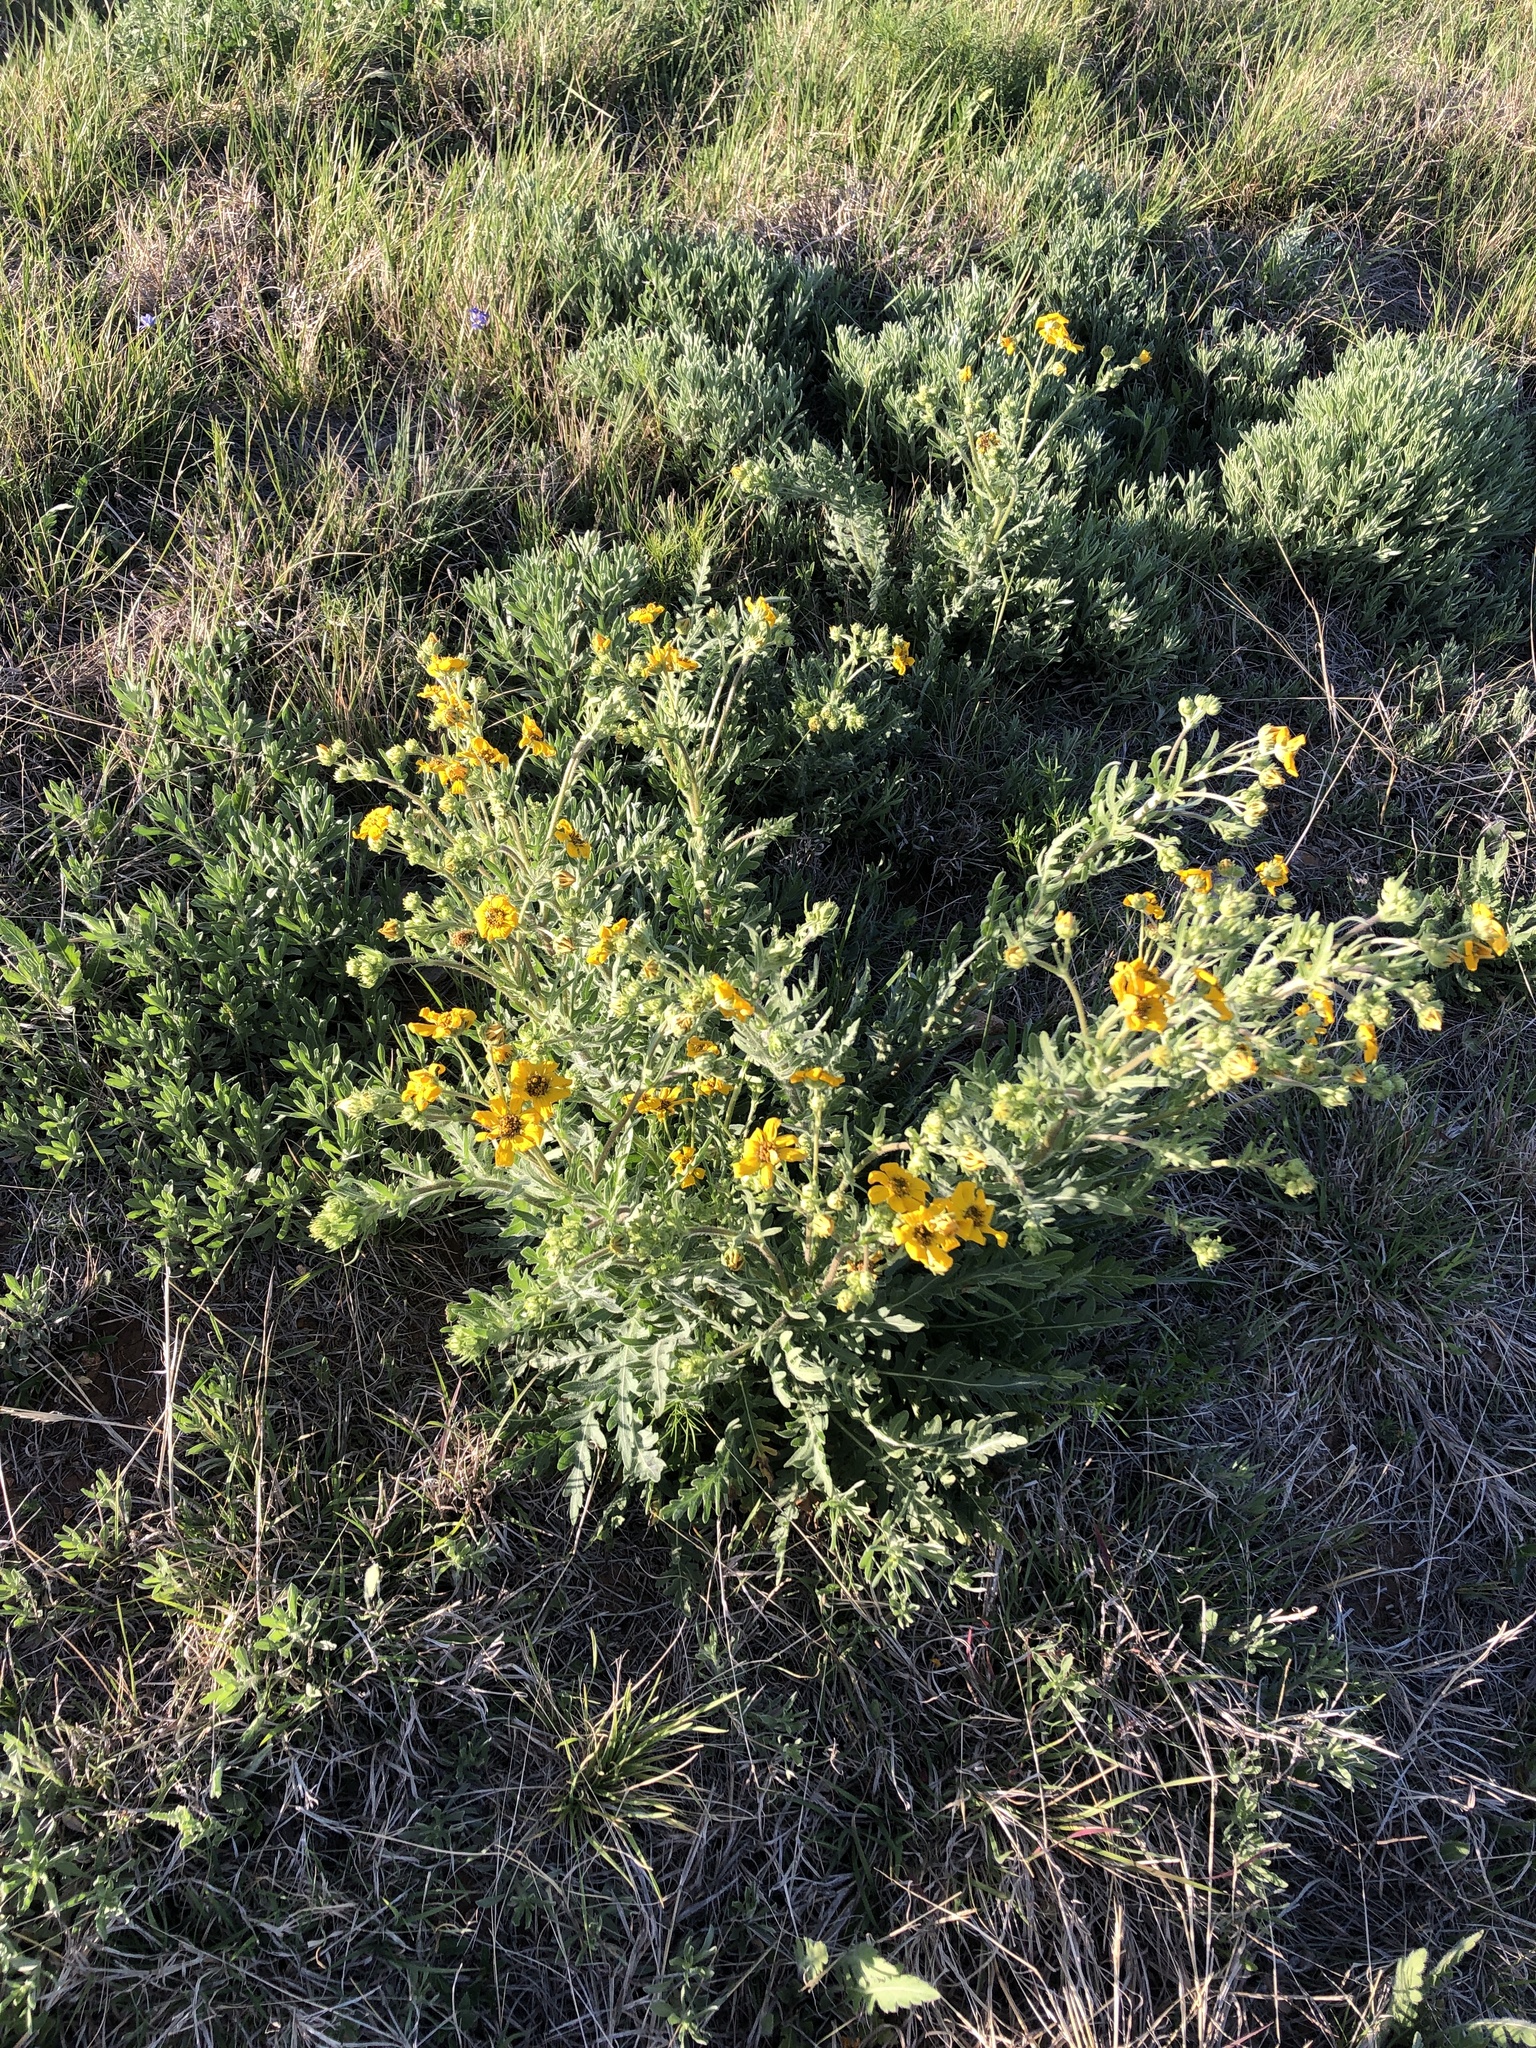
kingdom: Plantae
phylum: Tracheophyta
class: Magnoliopsida
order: Asterales
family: Asteraceae
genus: Engelmannia
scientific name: Engelmannia peristenia
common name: Engelmann's daisy
